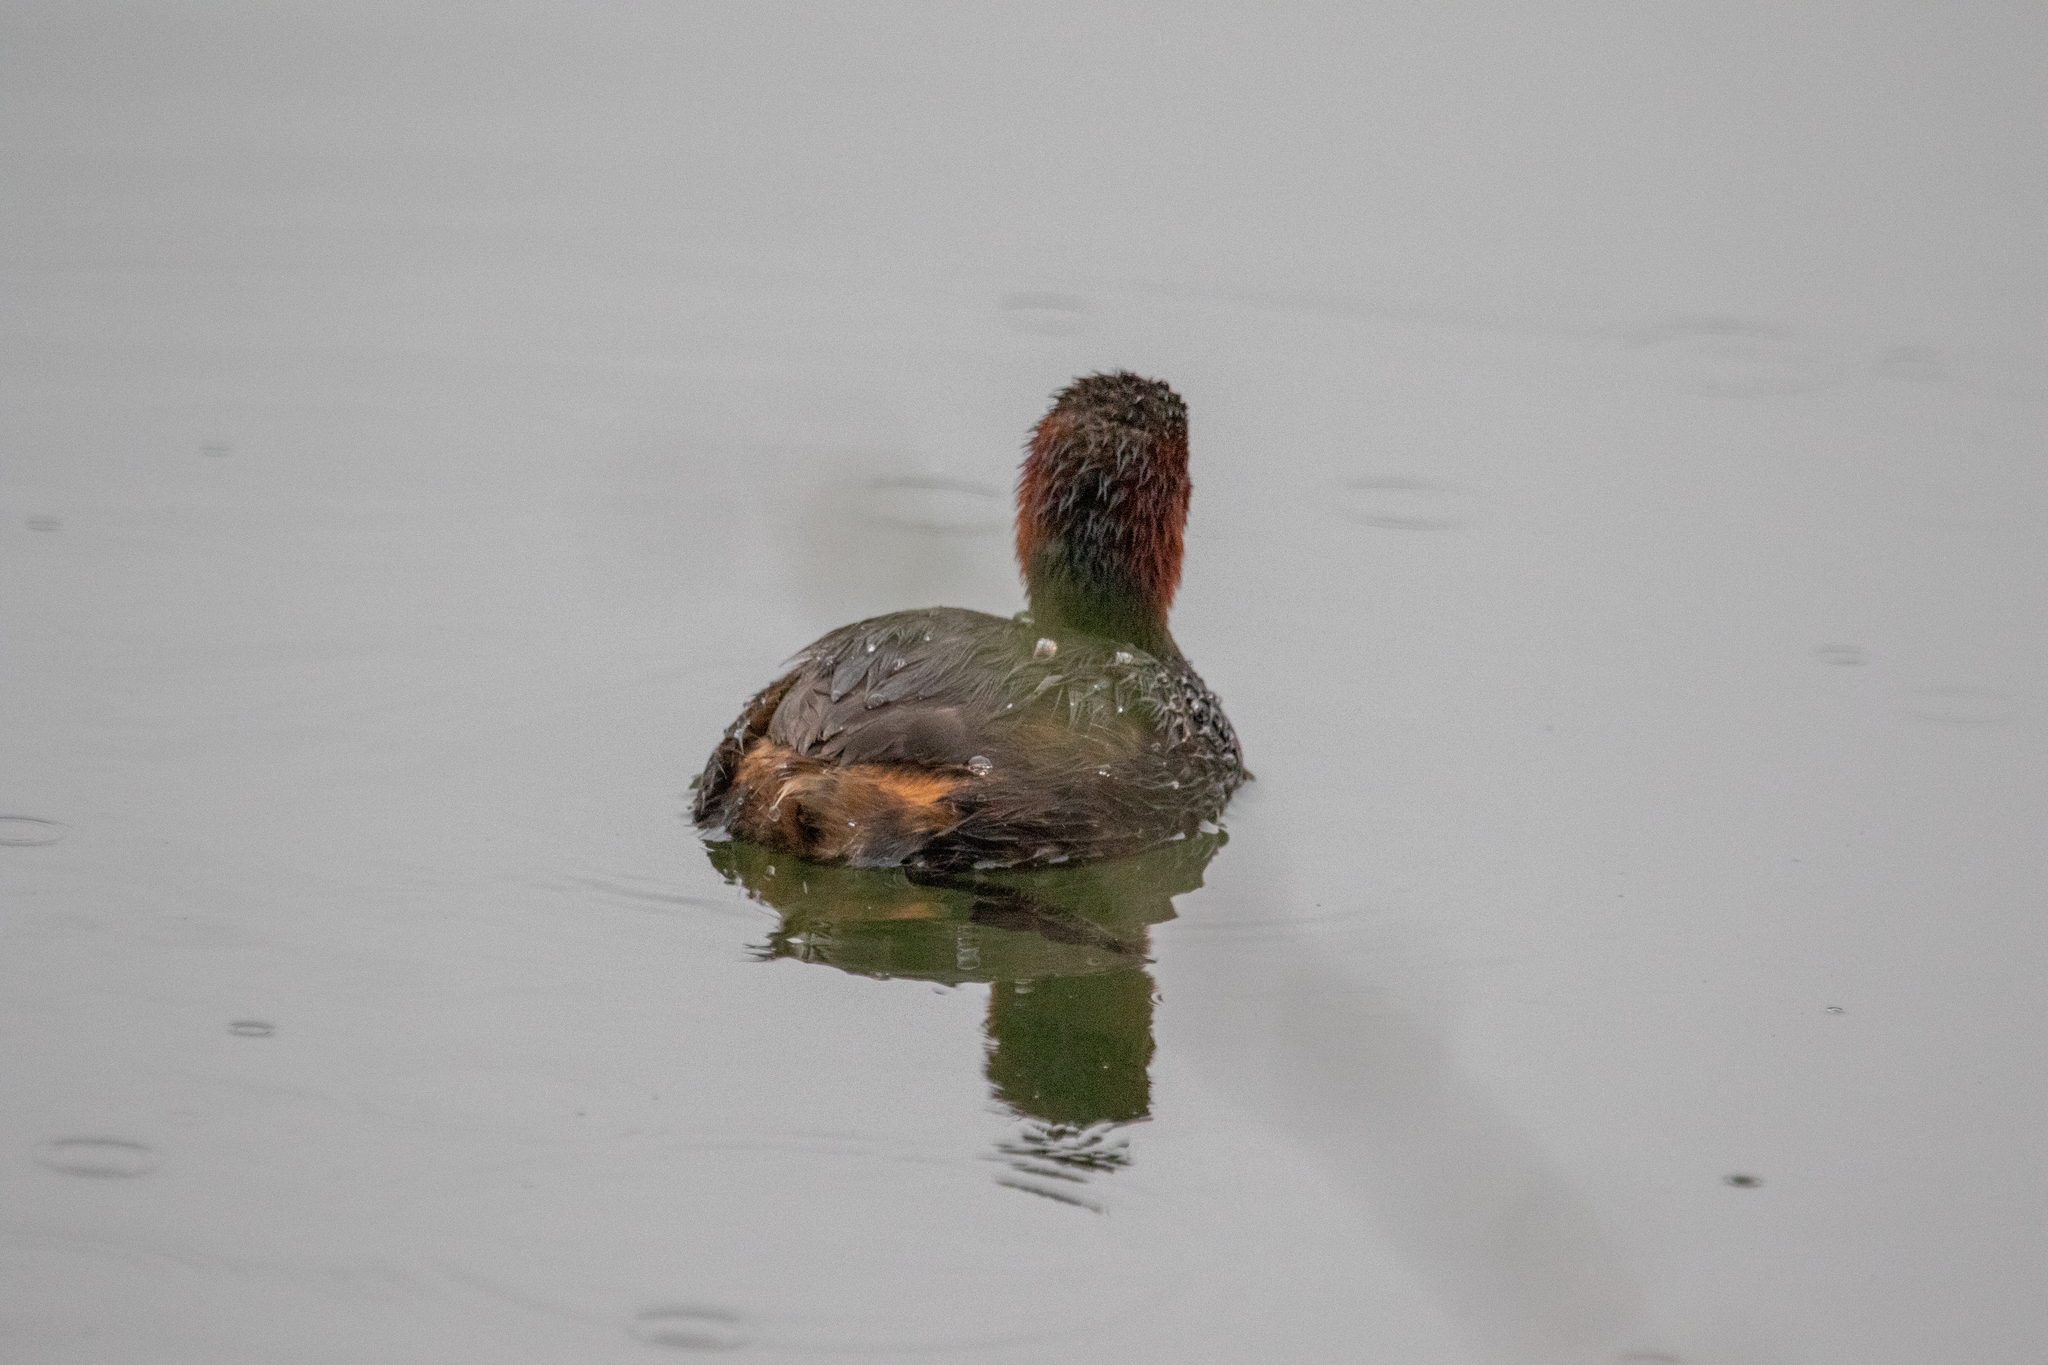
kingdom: Animalia
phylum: Chordata
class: Aves
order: Podicipediformes
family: Podicipedidae
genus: Tachybaptus
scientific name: Tachybaptus ruficollis
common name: Little grebe
